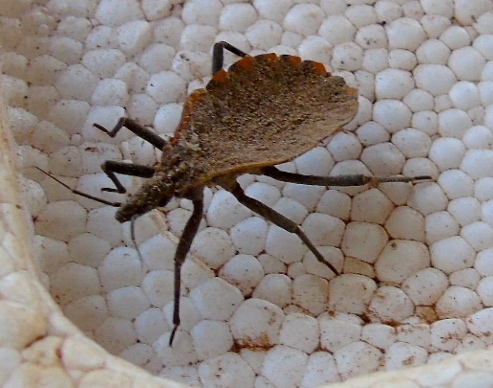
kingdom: Animalia
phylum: Arthropoda
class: Insecta
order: Hemiptera
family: Reduviidae
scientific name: Reduviidae
